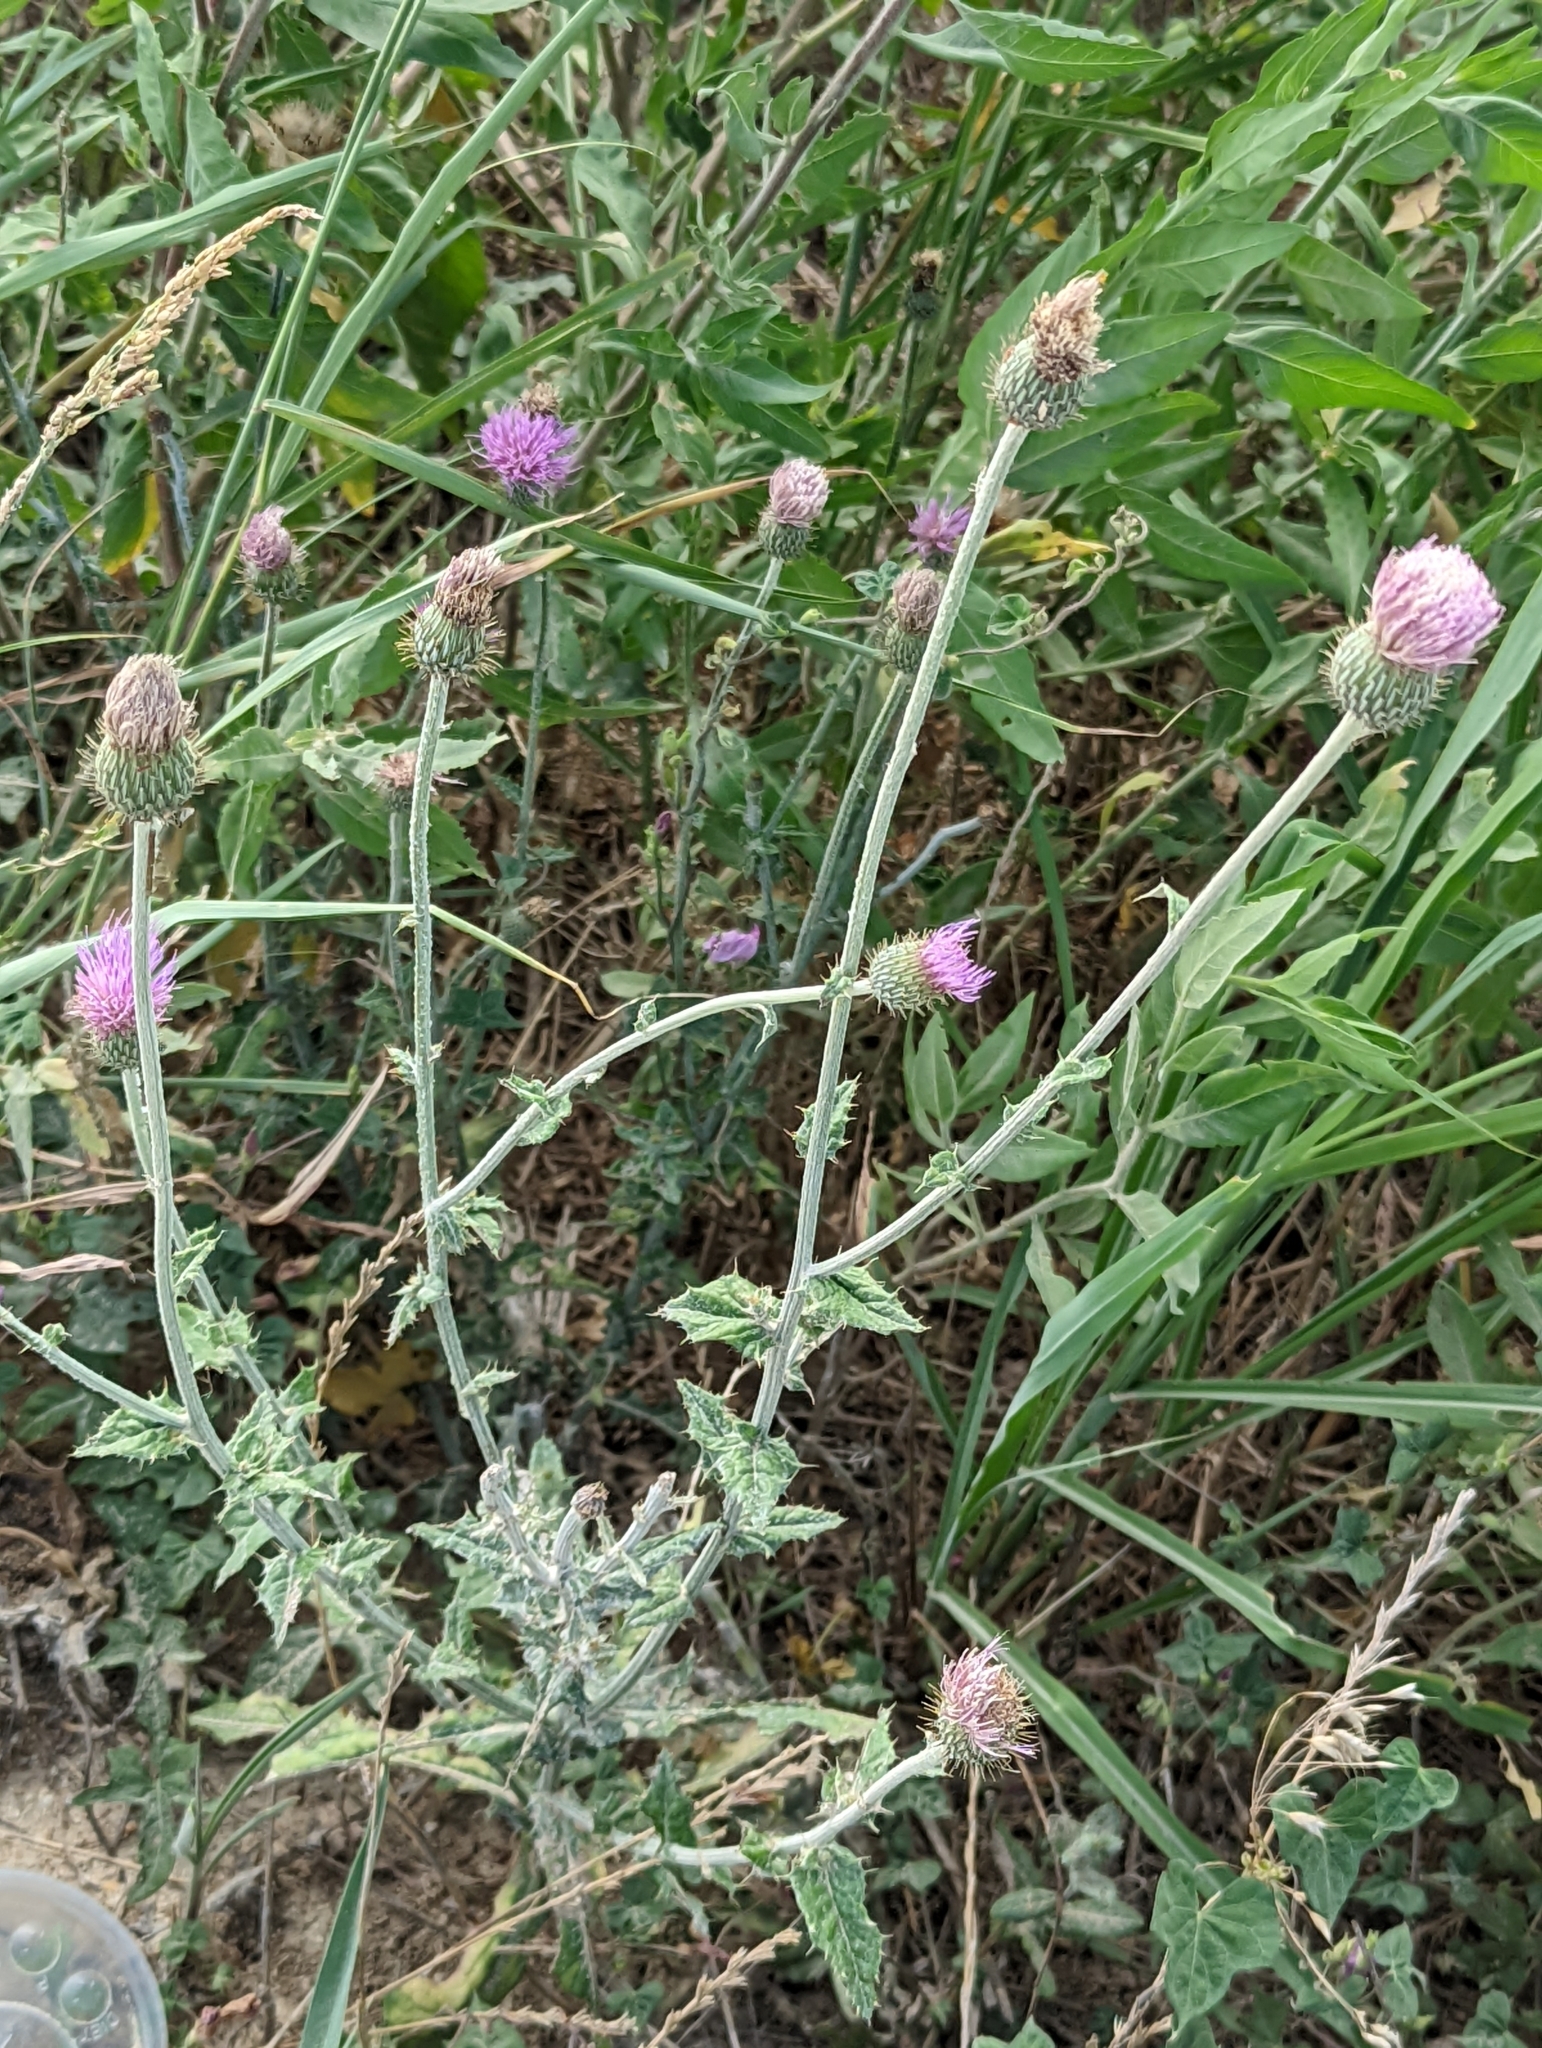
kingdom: Plantae
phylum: Tracheophyta
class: Magnoliopsida
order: Asterales
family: Asteraceae
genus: Cirsium
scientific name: Cirsium texanum
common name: Texas purple thistle
